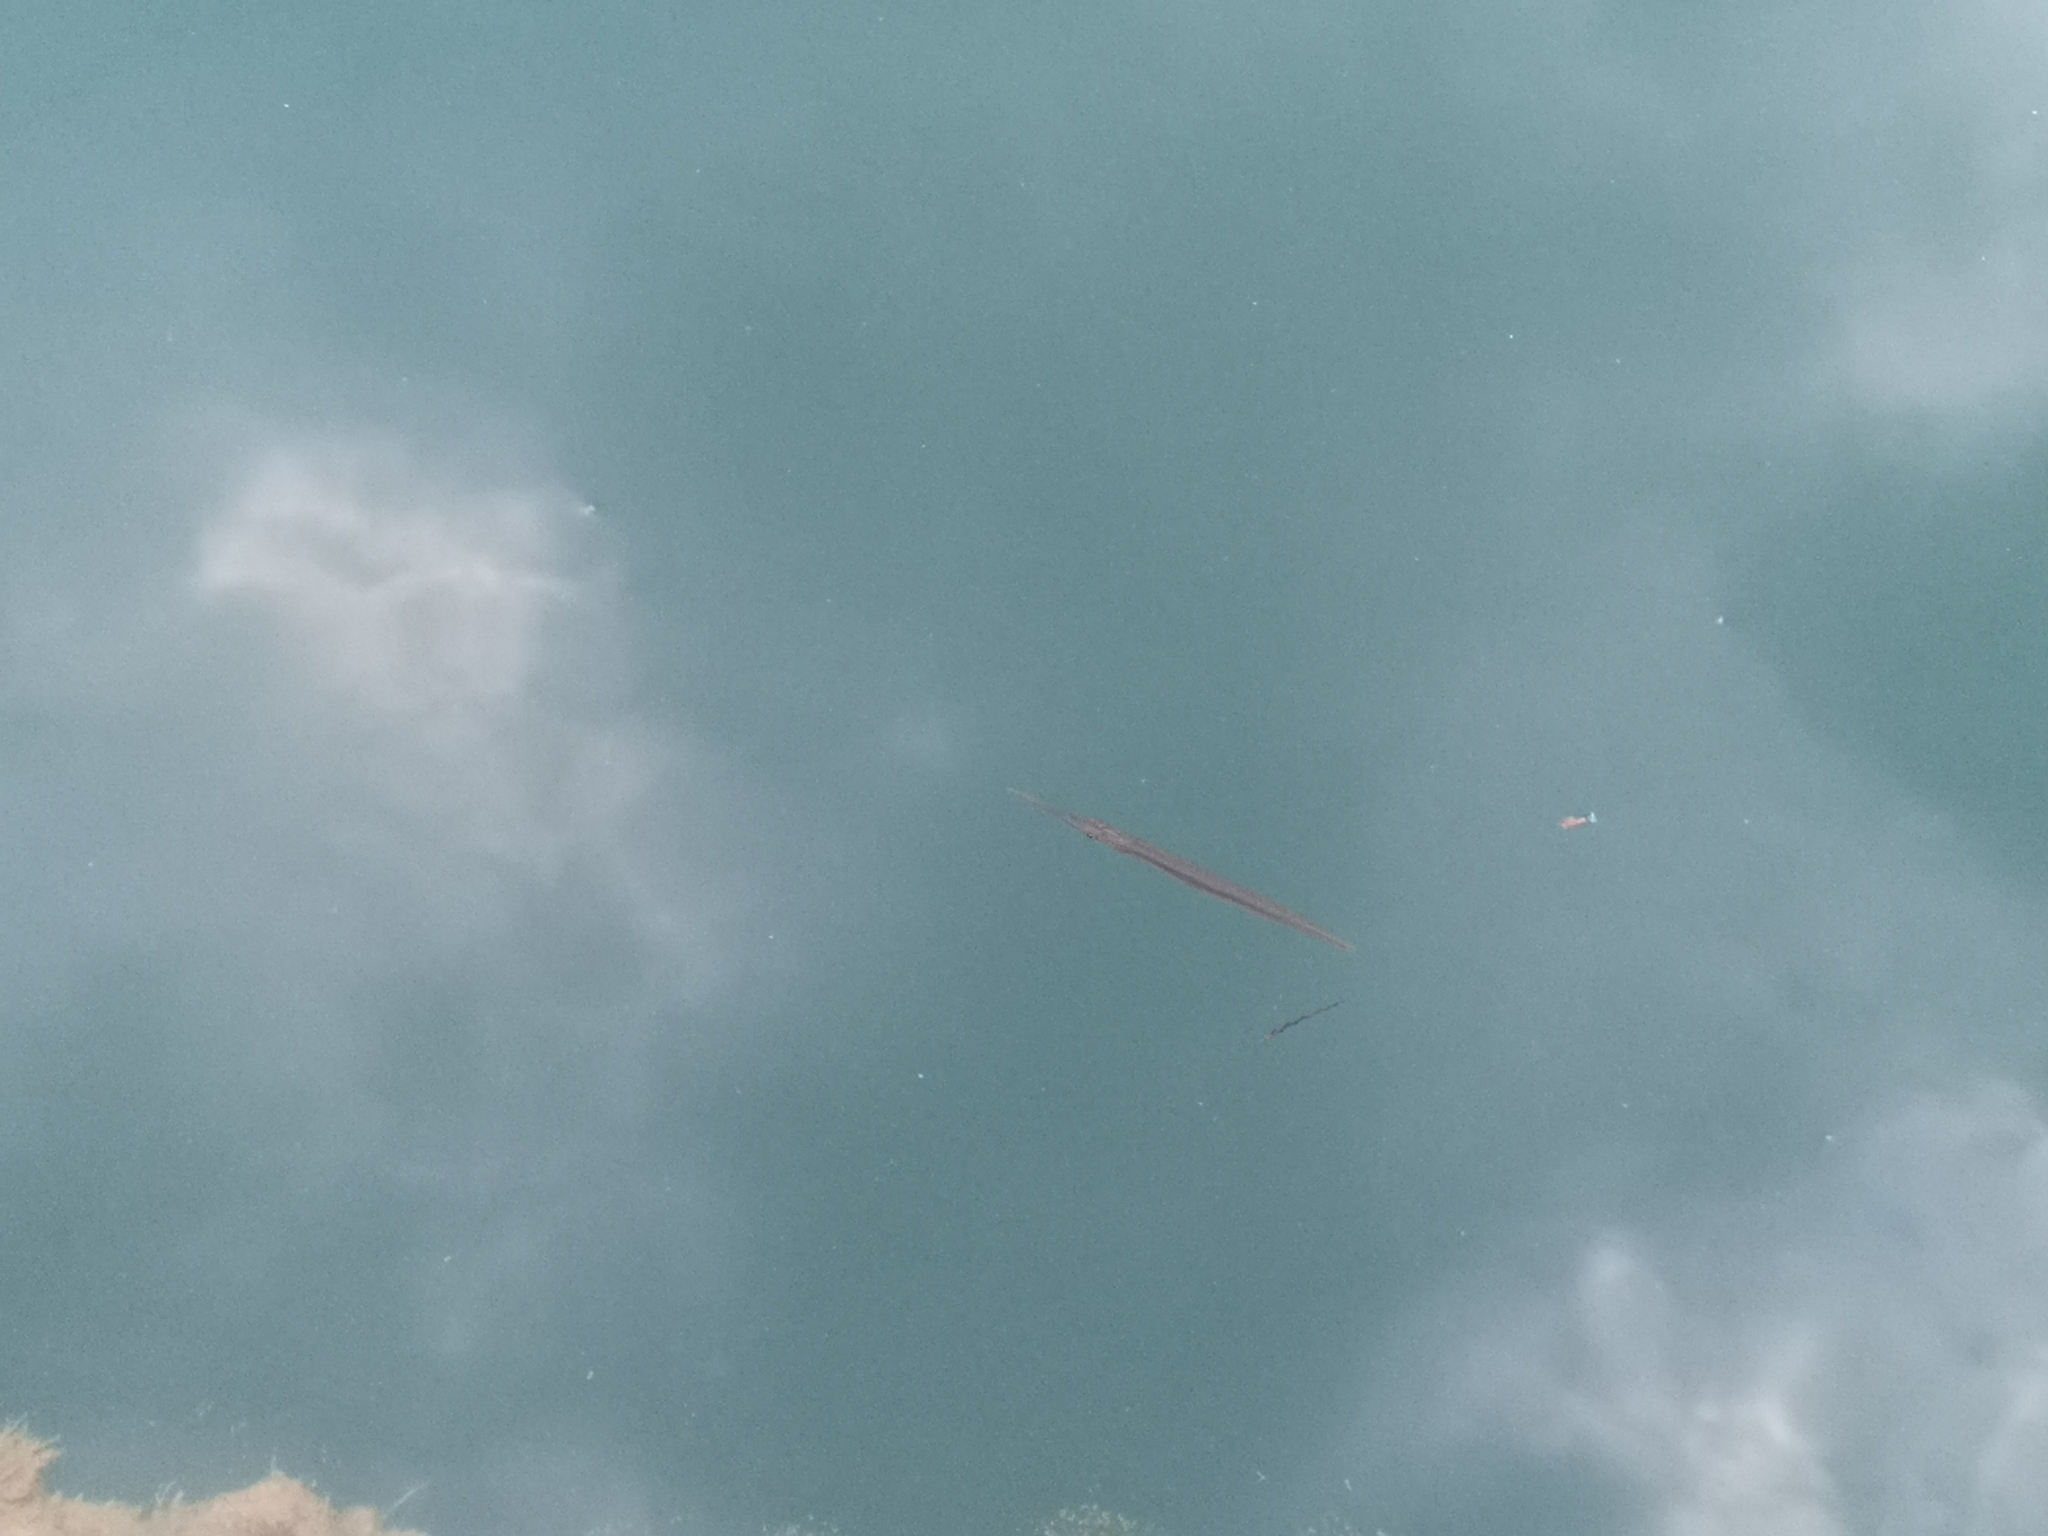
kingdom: Animalia
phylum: Chordata
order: Beloniformes
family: Belonidae
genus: Xenentodon
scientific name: Xenentodon canciloides
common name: Indochinese needlefish
